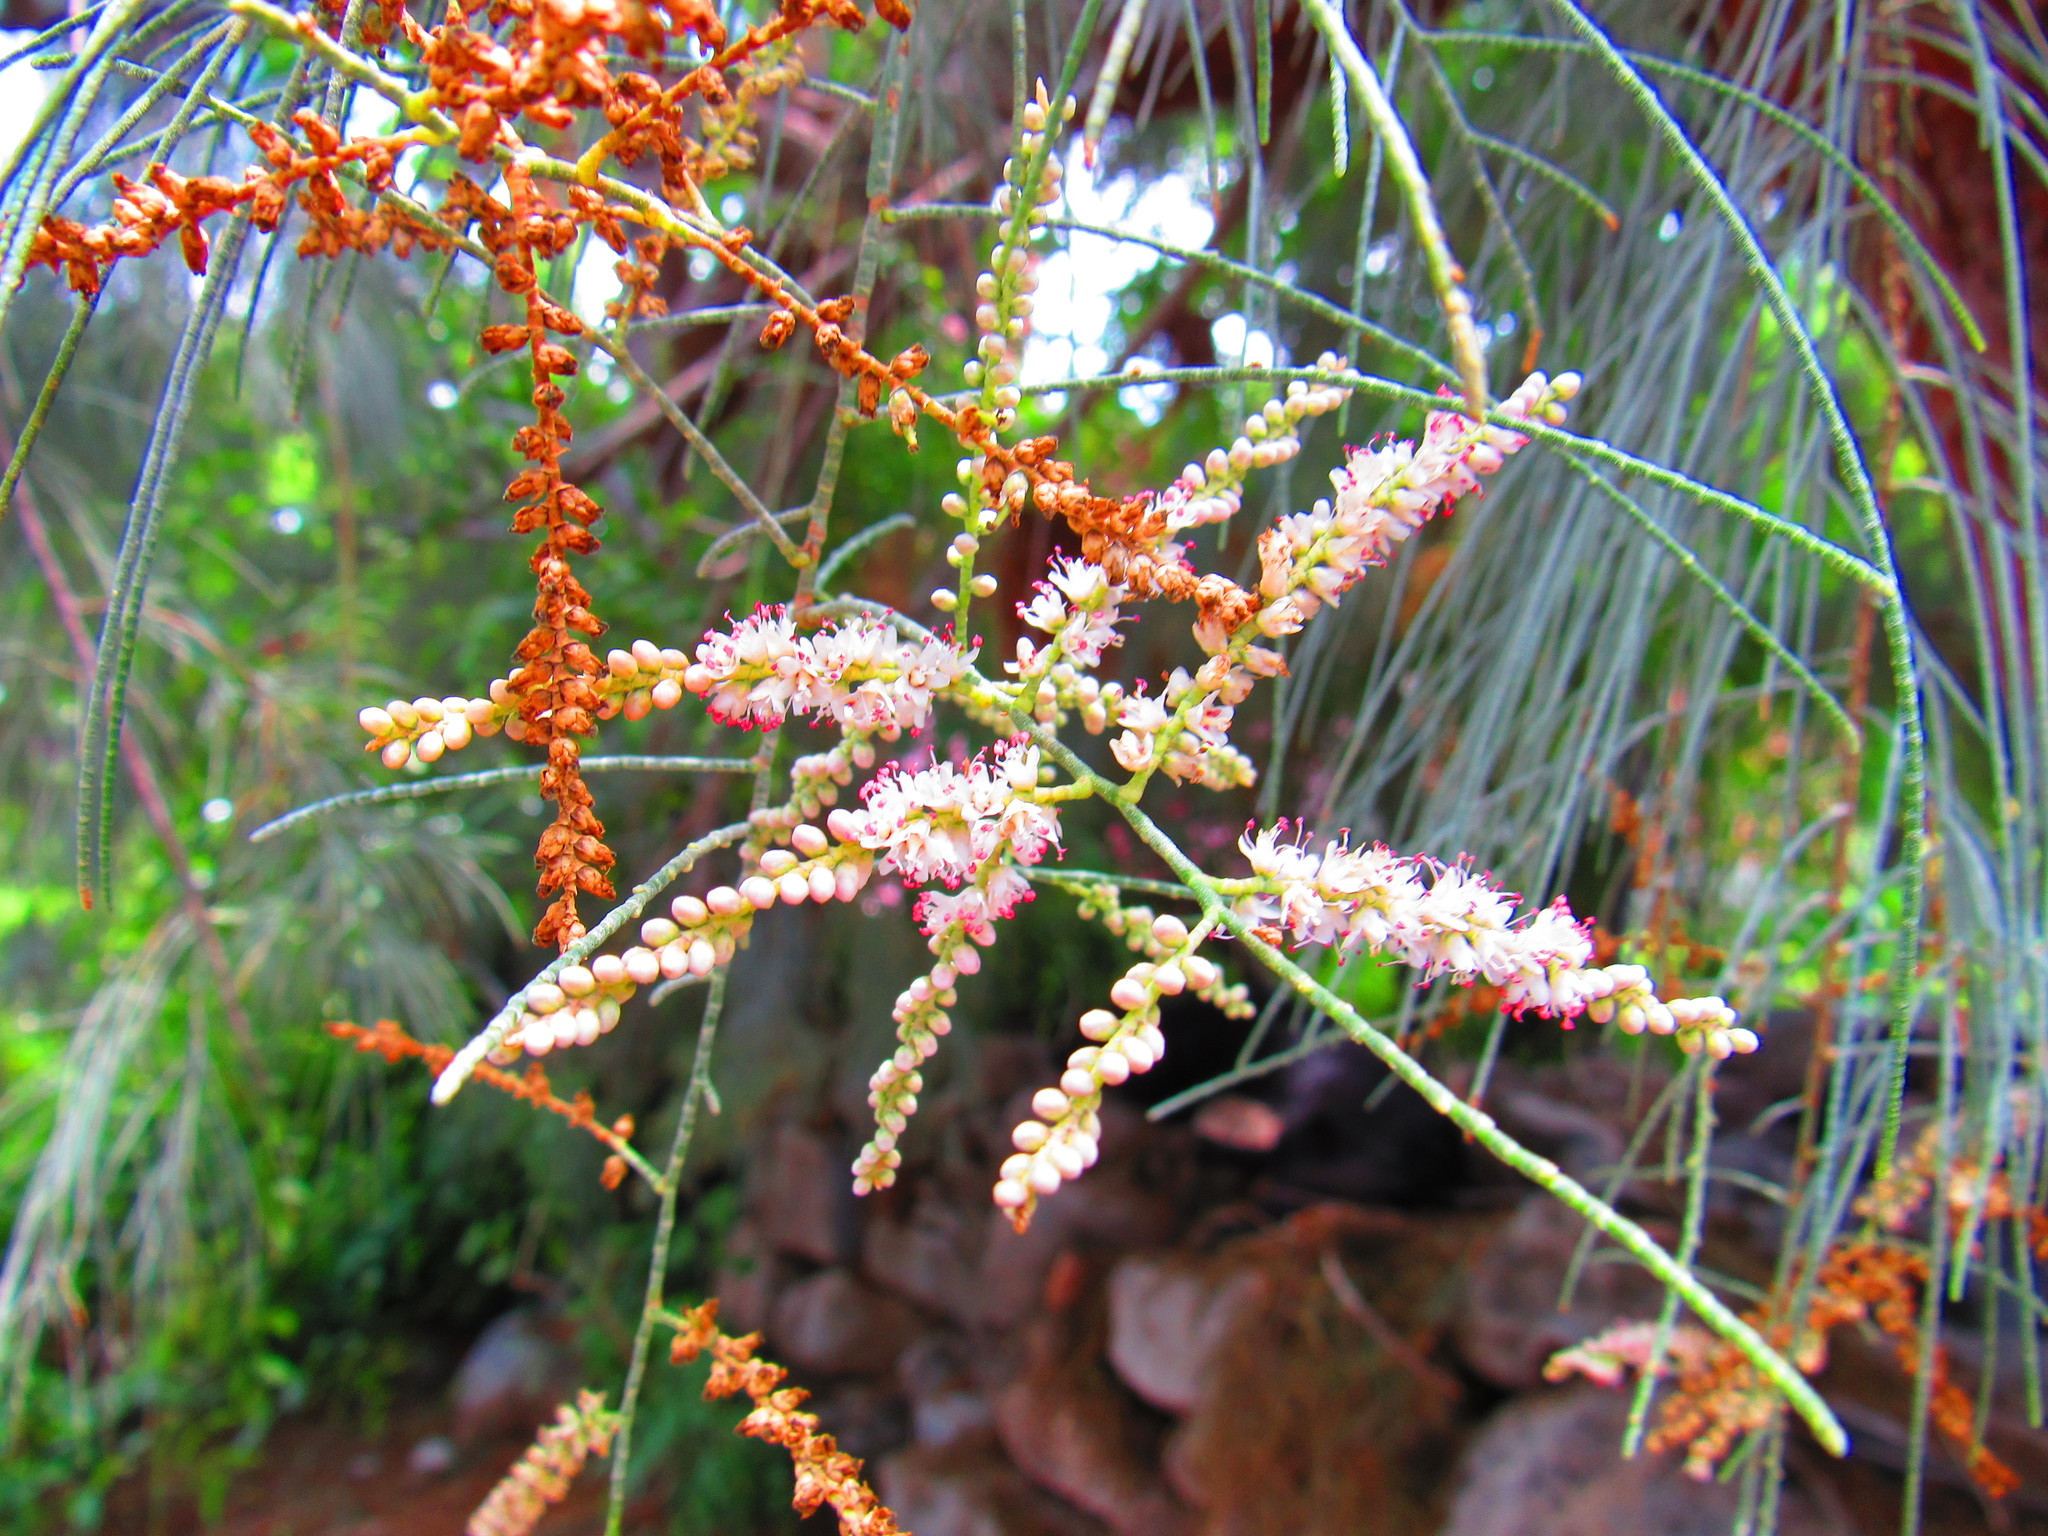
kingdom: Plantae
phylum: Tracheophyta
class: Magnoliopsida
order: Caryophyllales
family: Tamaricaceae
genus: Tamarix
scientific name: Tamarix ramosissima
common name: Pink tamarisk
